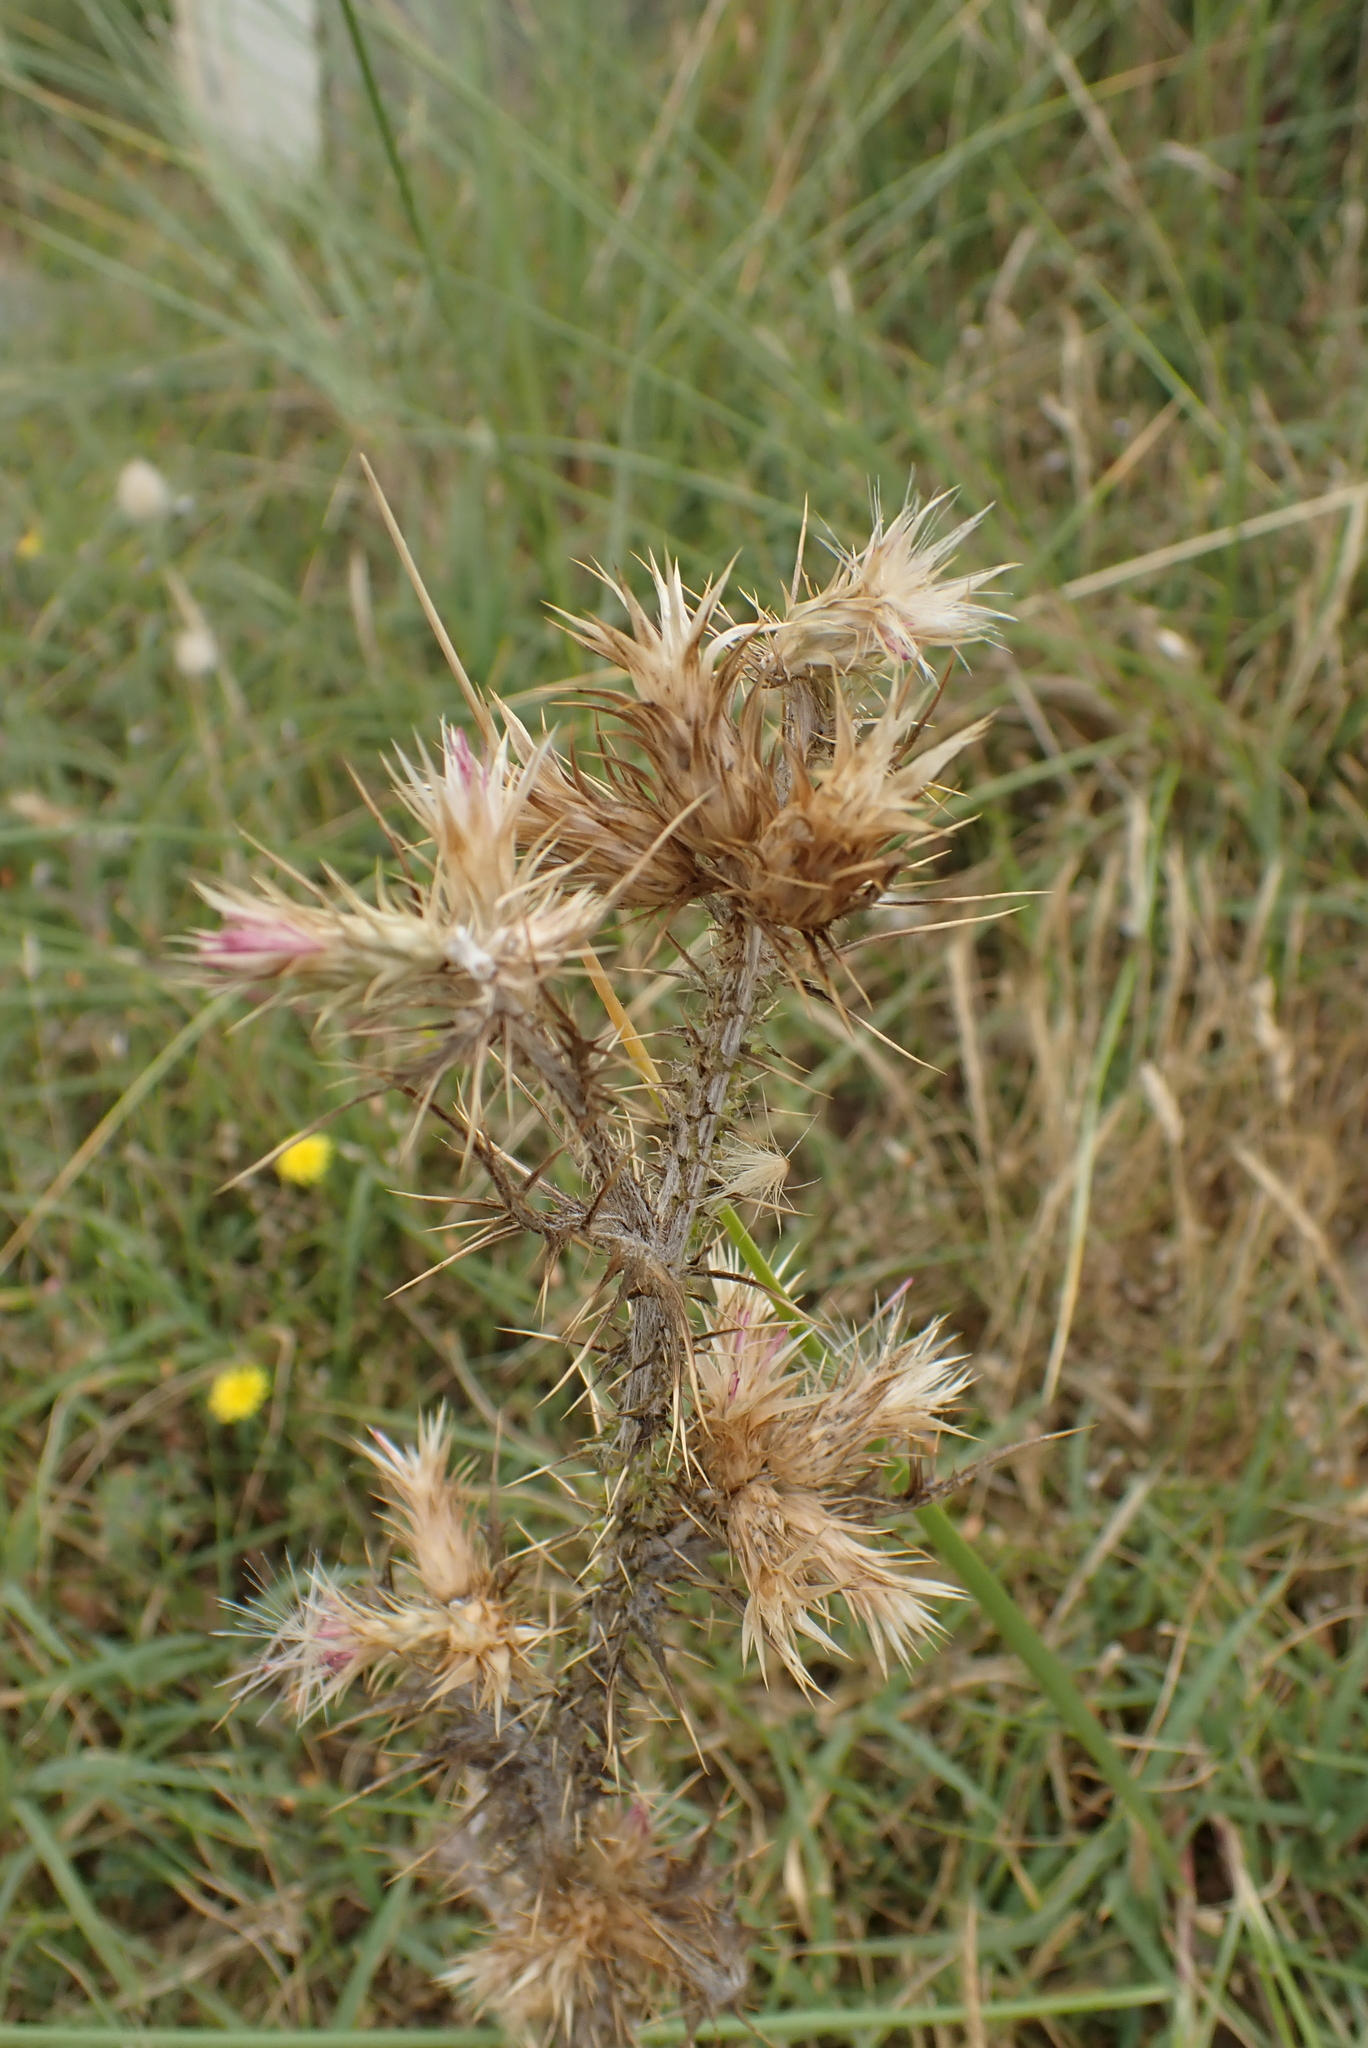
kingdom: Plantae
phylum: Tracheophyta
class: Magnoliopsida
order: Asterales
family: Asteraceae
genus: Carduus
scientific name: Carduus tenuiflorus
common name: Slender thistle
